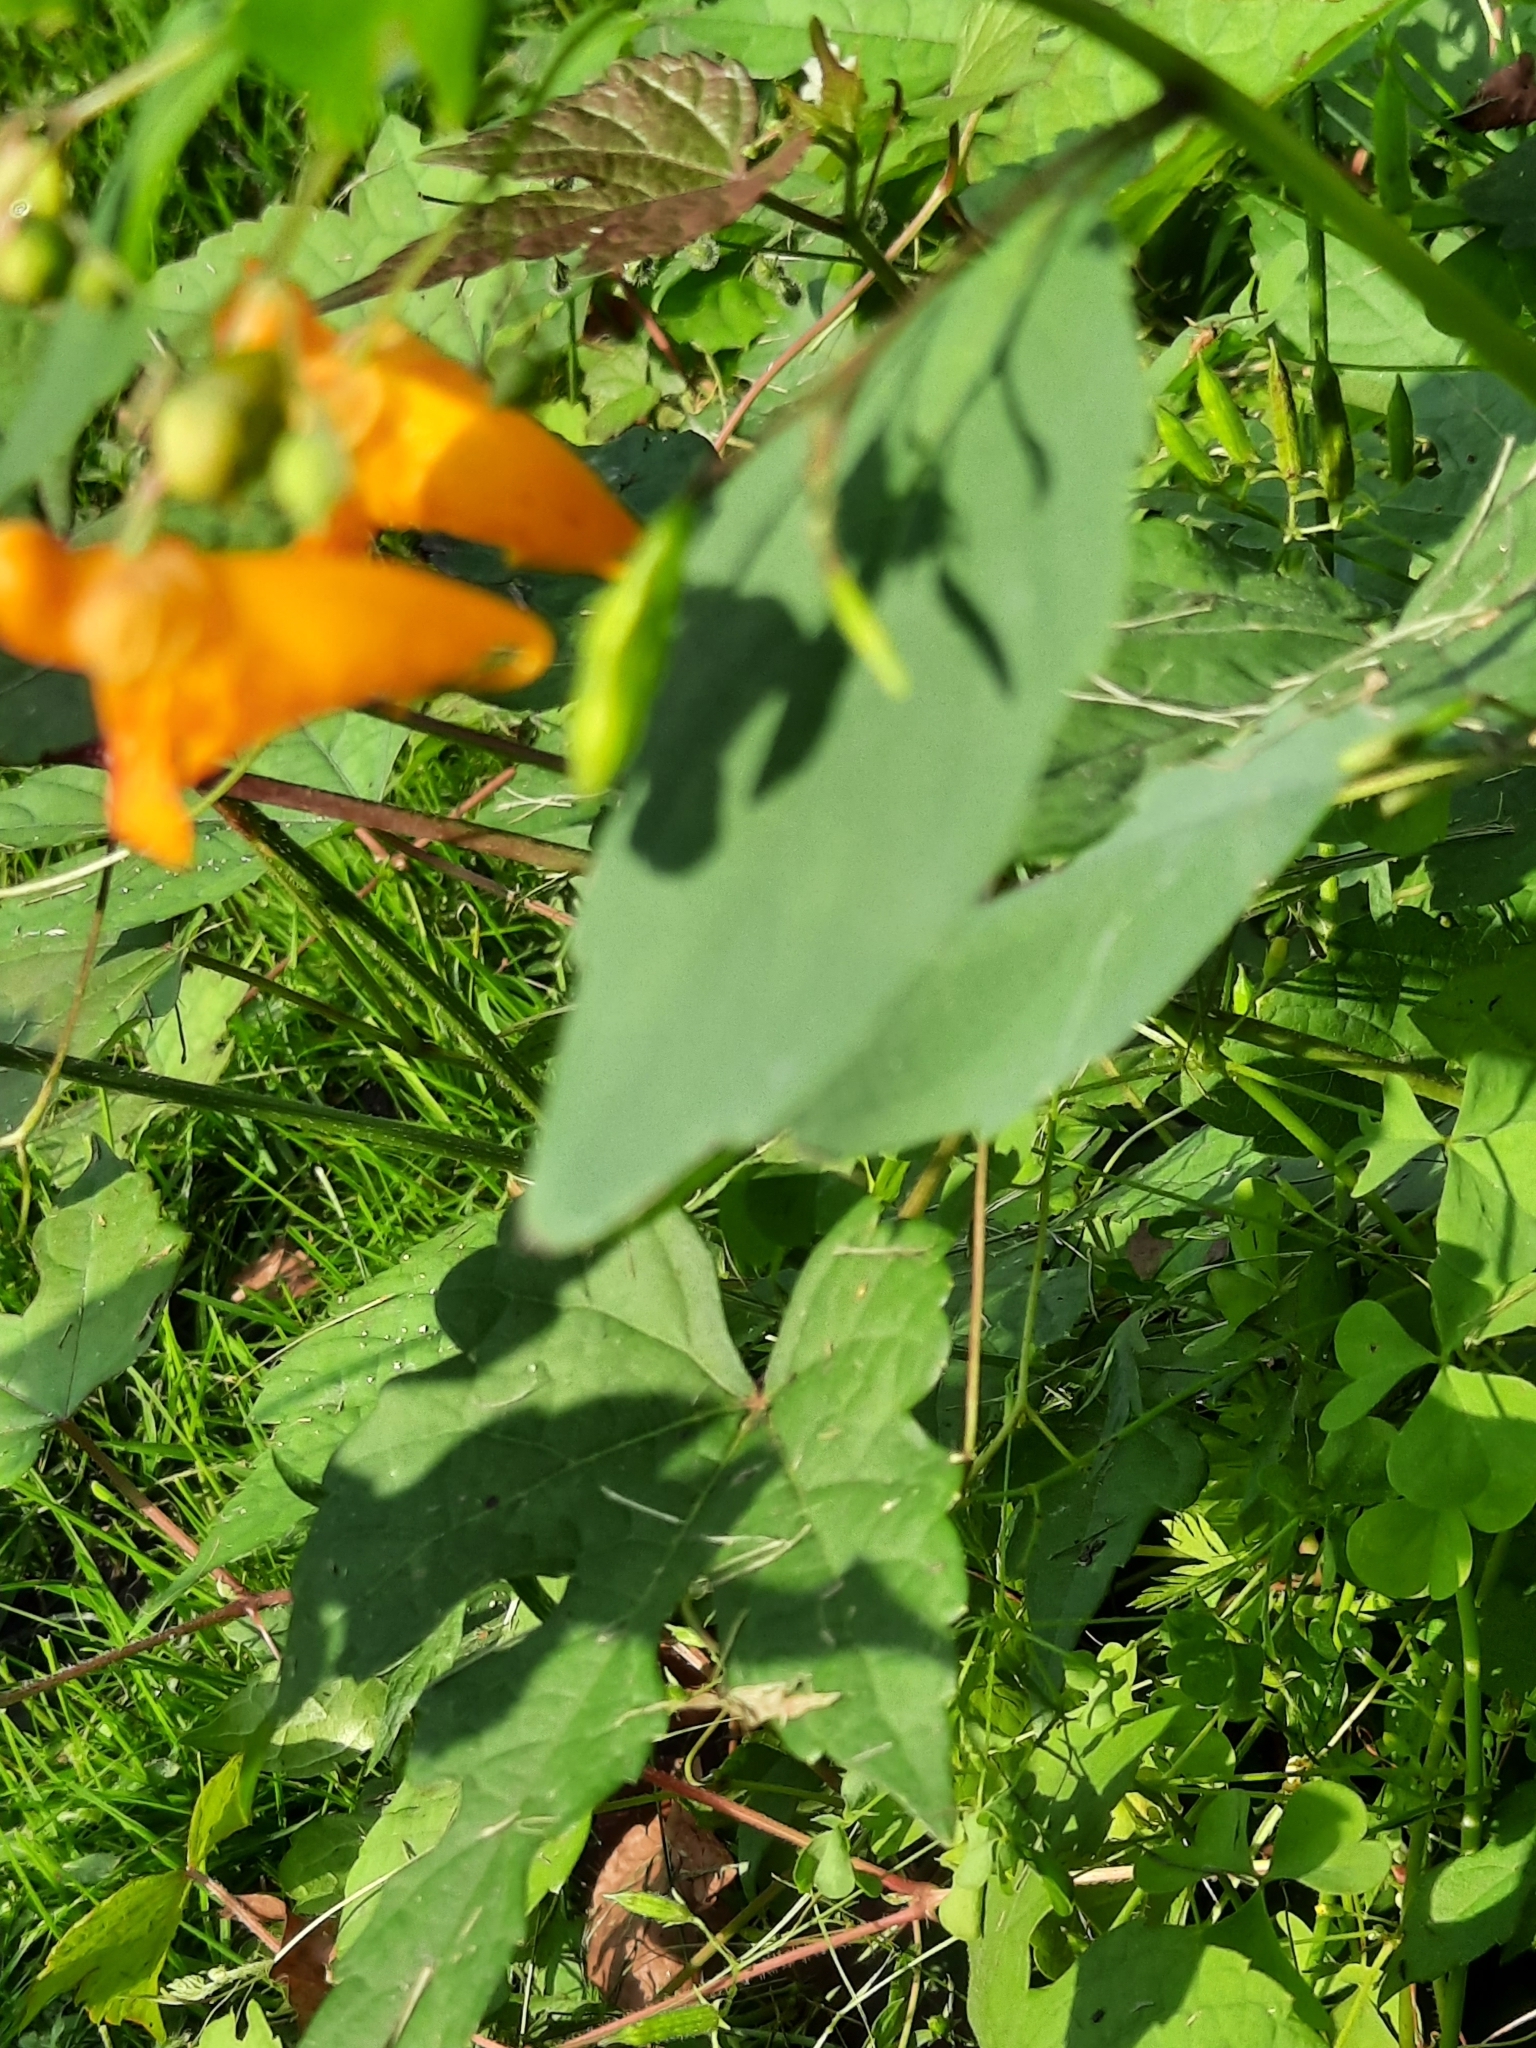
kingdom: Plantae
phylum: Tracheophyta
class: Magnoliopsida
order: Ericales
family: Balsaminaceae
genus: Impatiens
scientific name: Impatiens capensis
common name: Orange balsam
